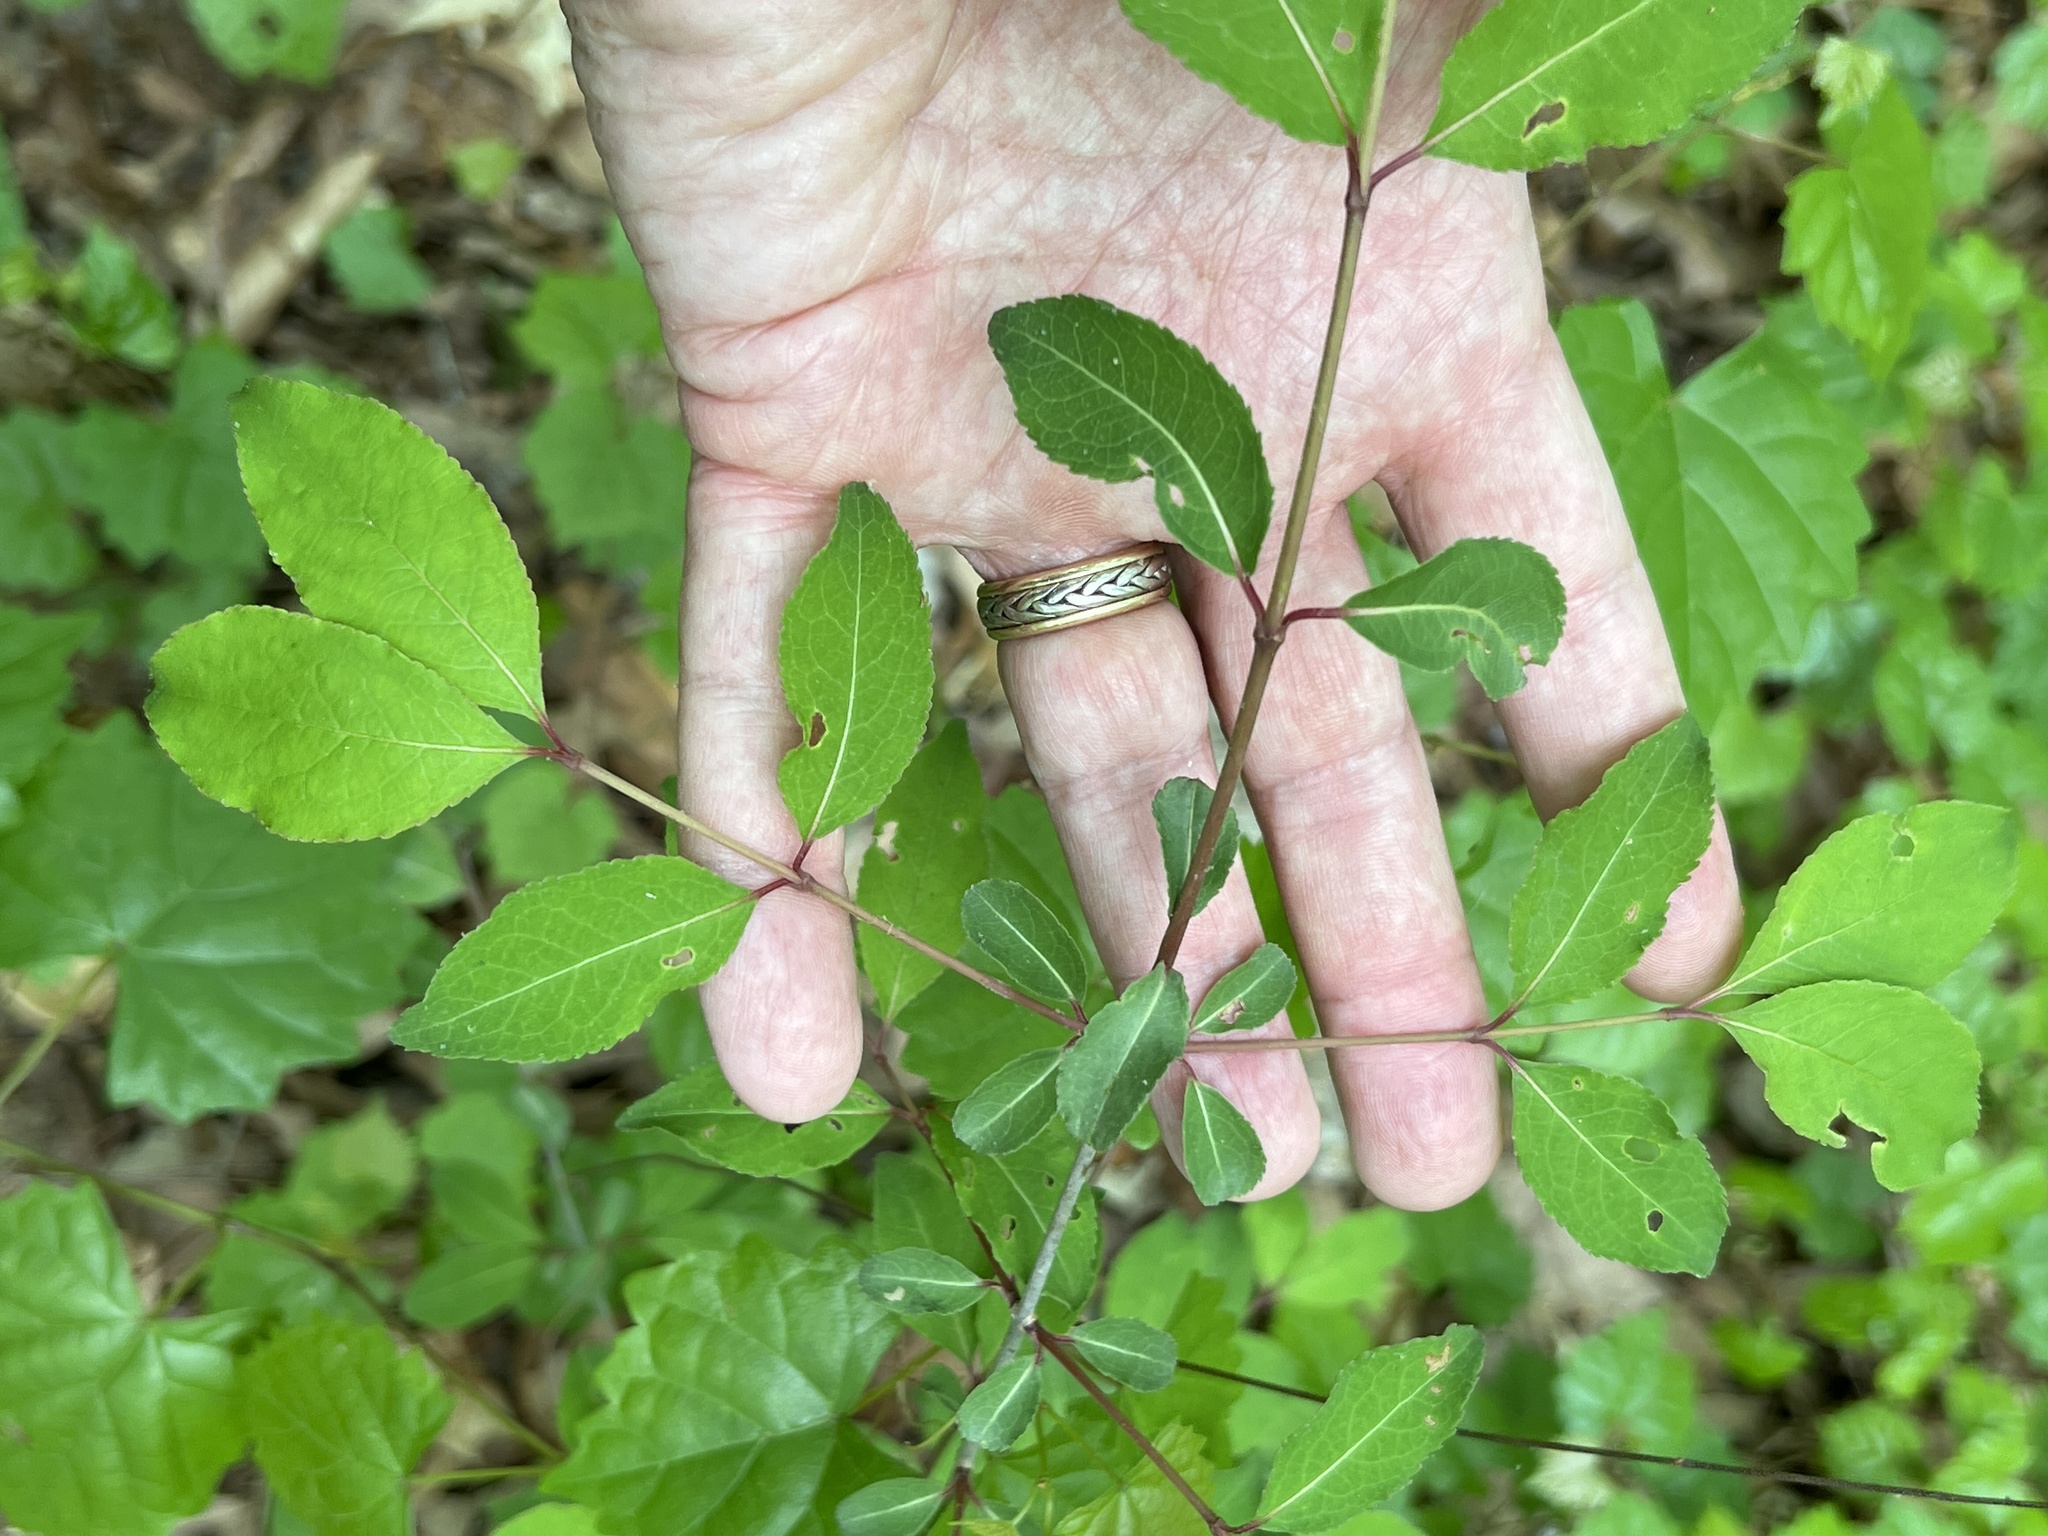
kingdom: Plantae
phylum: Tracheophyta
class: Magnoliopsida
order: Dipsacales
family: Viburnaceae
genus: Viburnum
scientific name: Viburnum prunifolium
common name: Black haw
